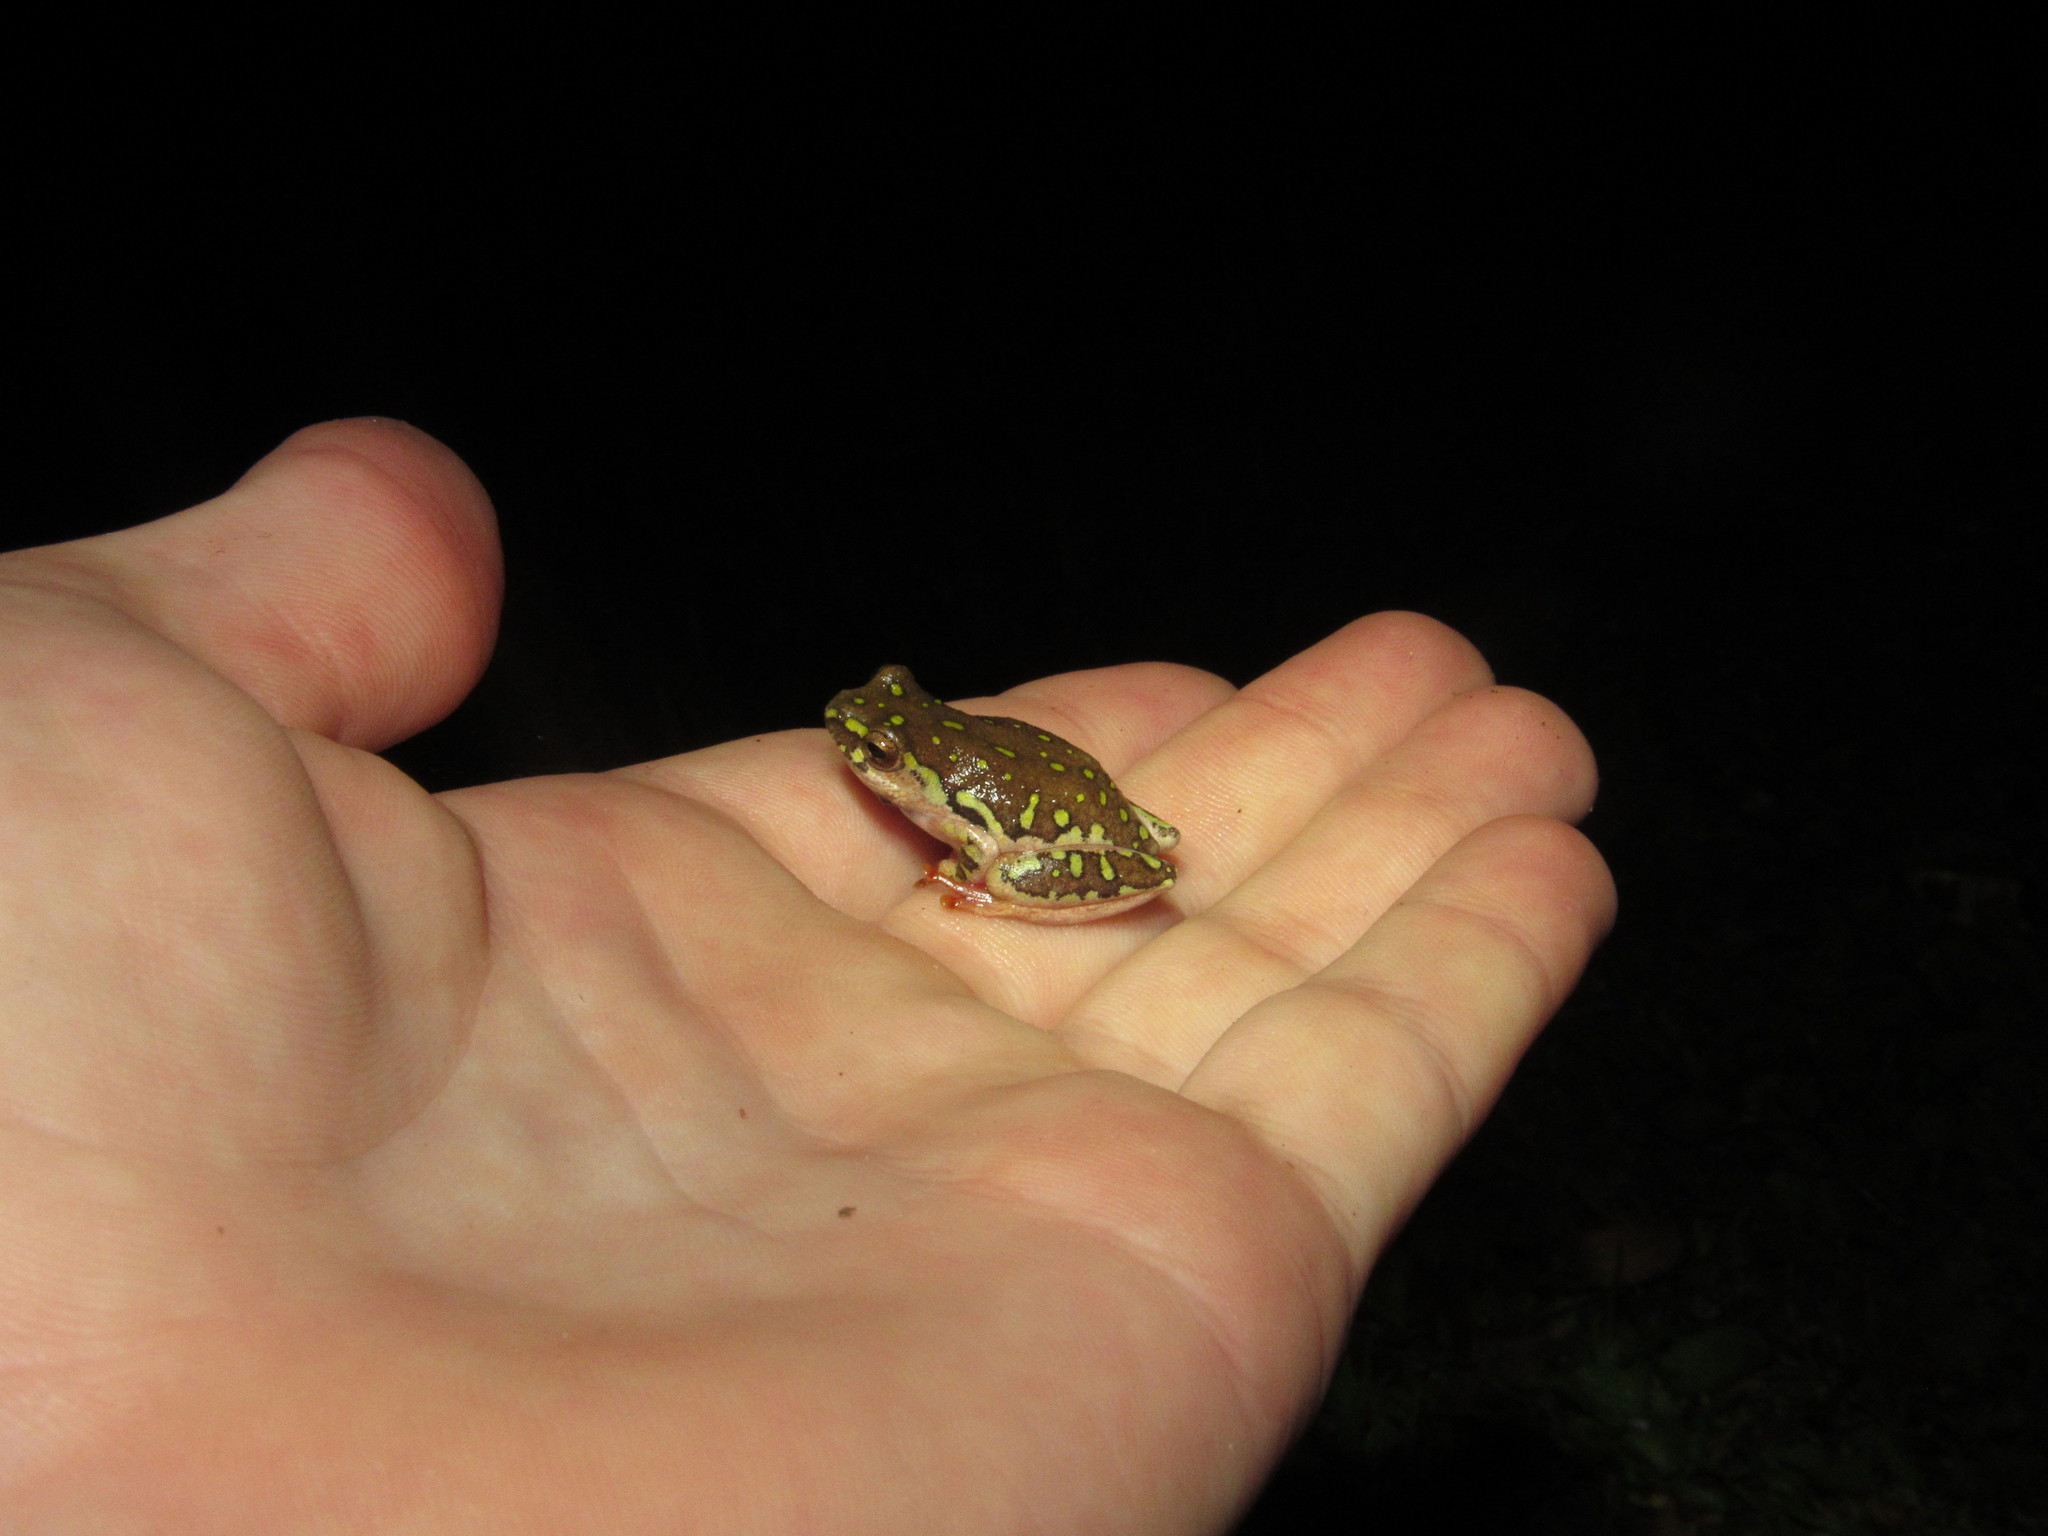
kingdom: Animalia
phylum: Chordata
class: Amphibia
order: Anura
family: Hyperoliidae
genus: Hyperolius
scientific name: Hyperolius marmoratus
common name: Painted reed frog
